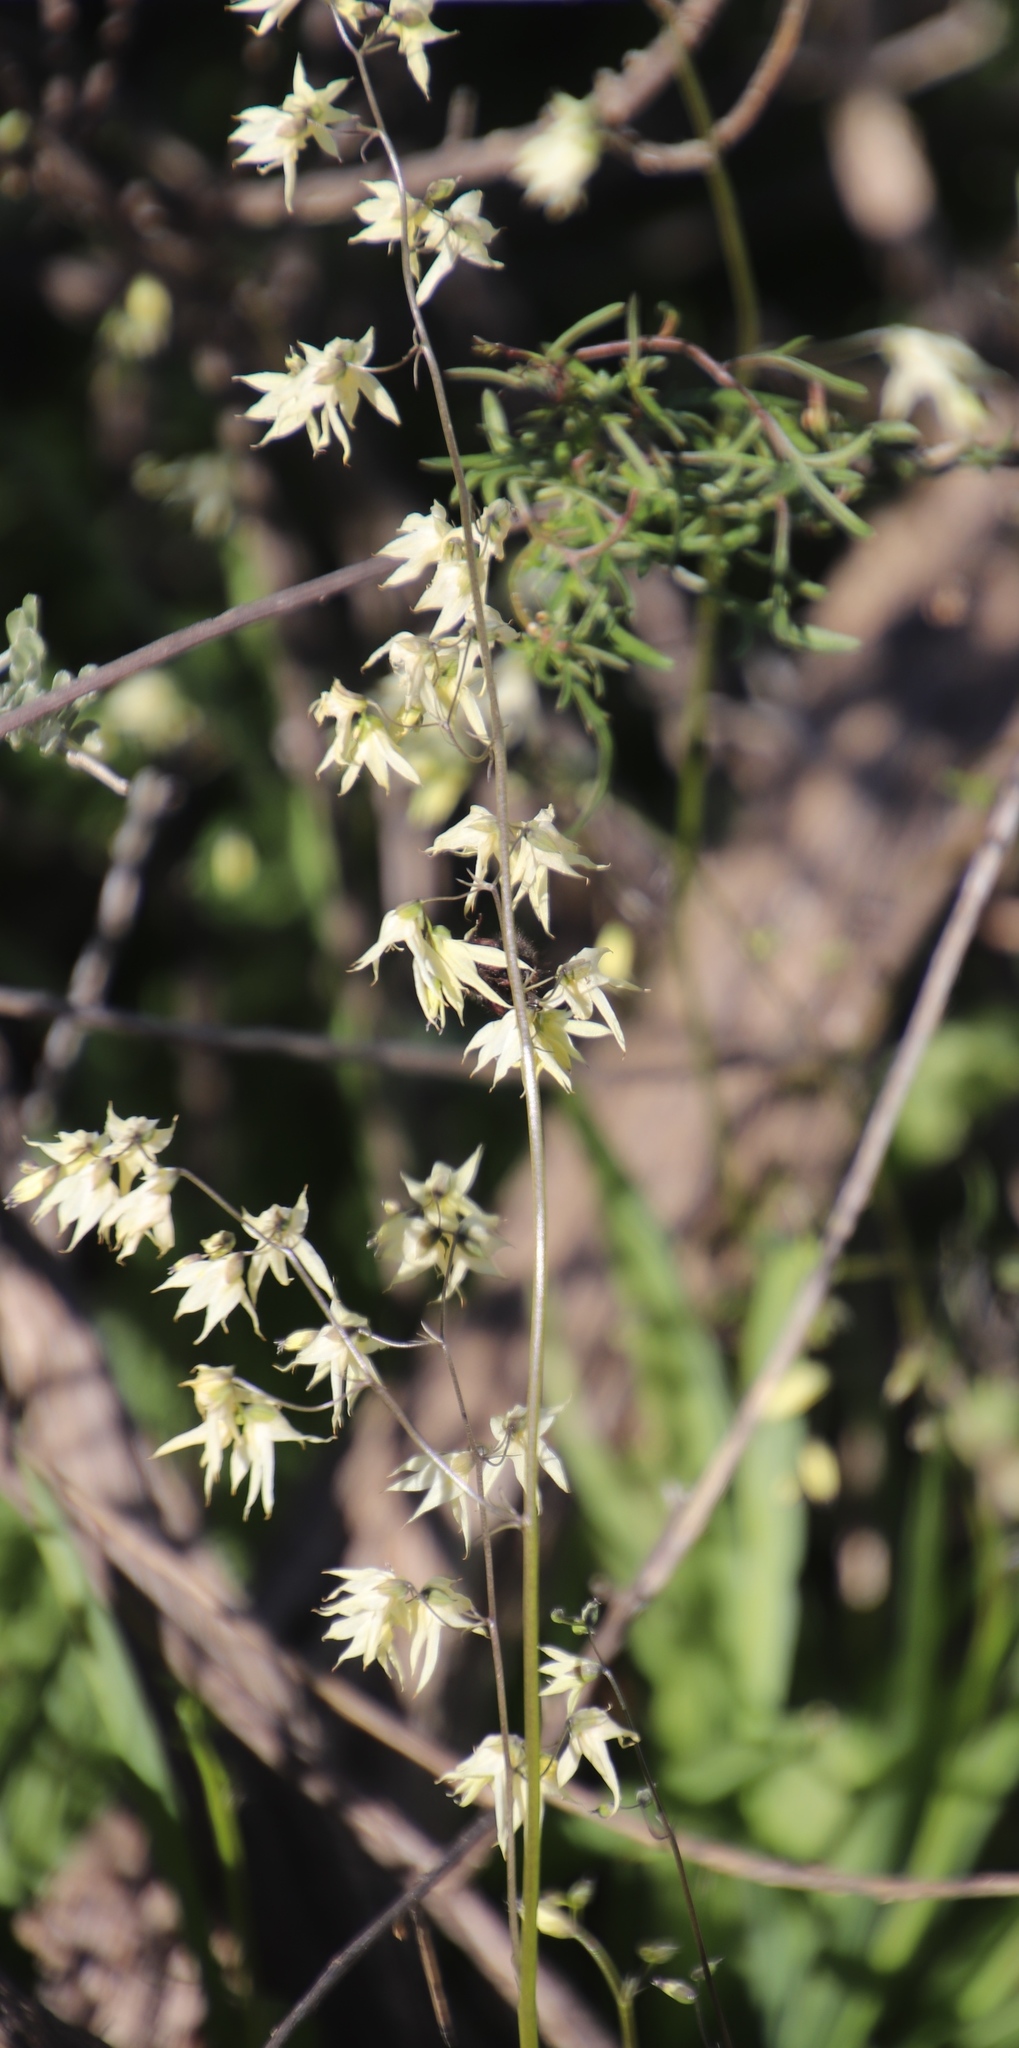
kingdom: Plantae
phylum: Tracheophyta
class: Liliopsida
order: Asparagales
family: Iridaceae
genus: Melasphaerula
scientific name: Melasphaerula graminea
